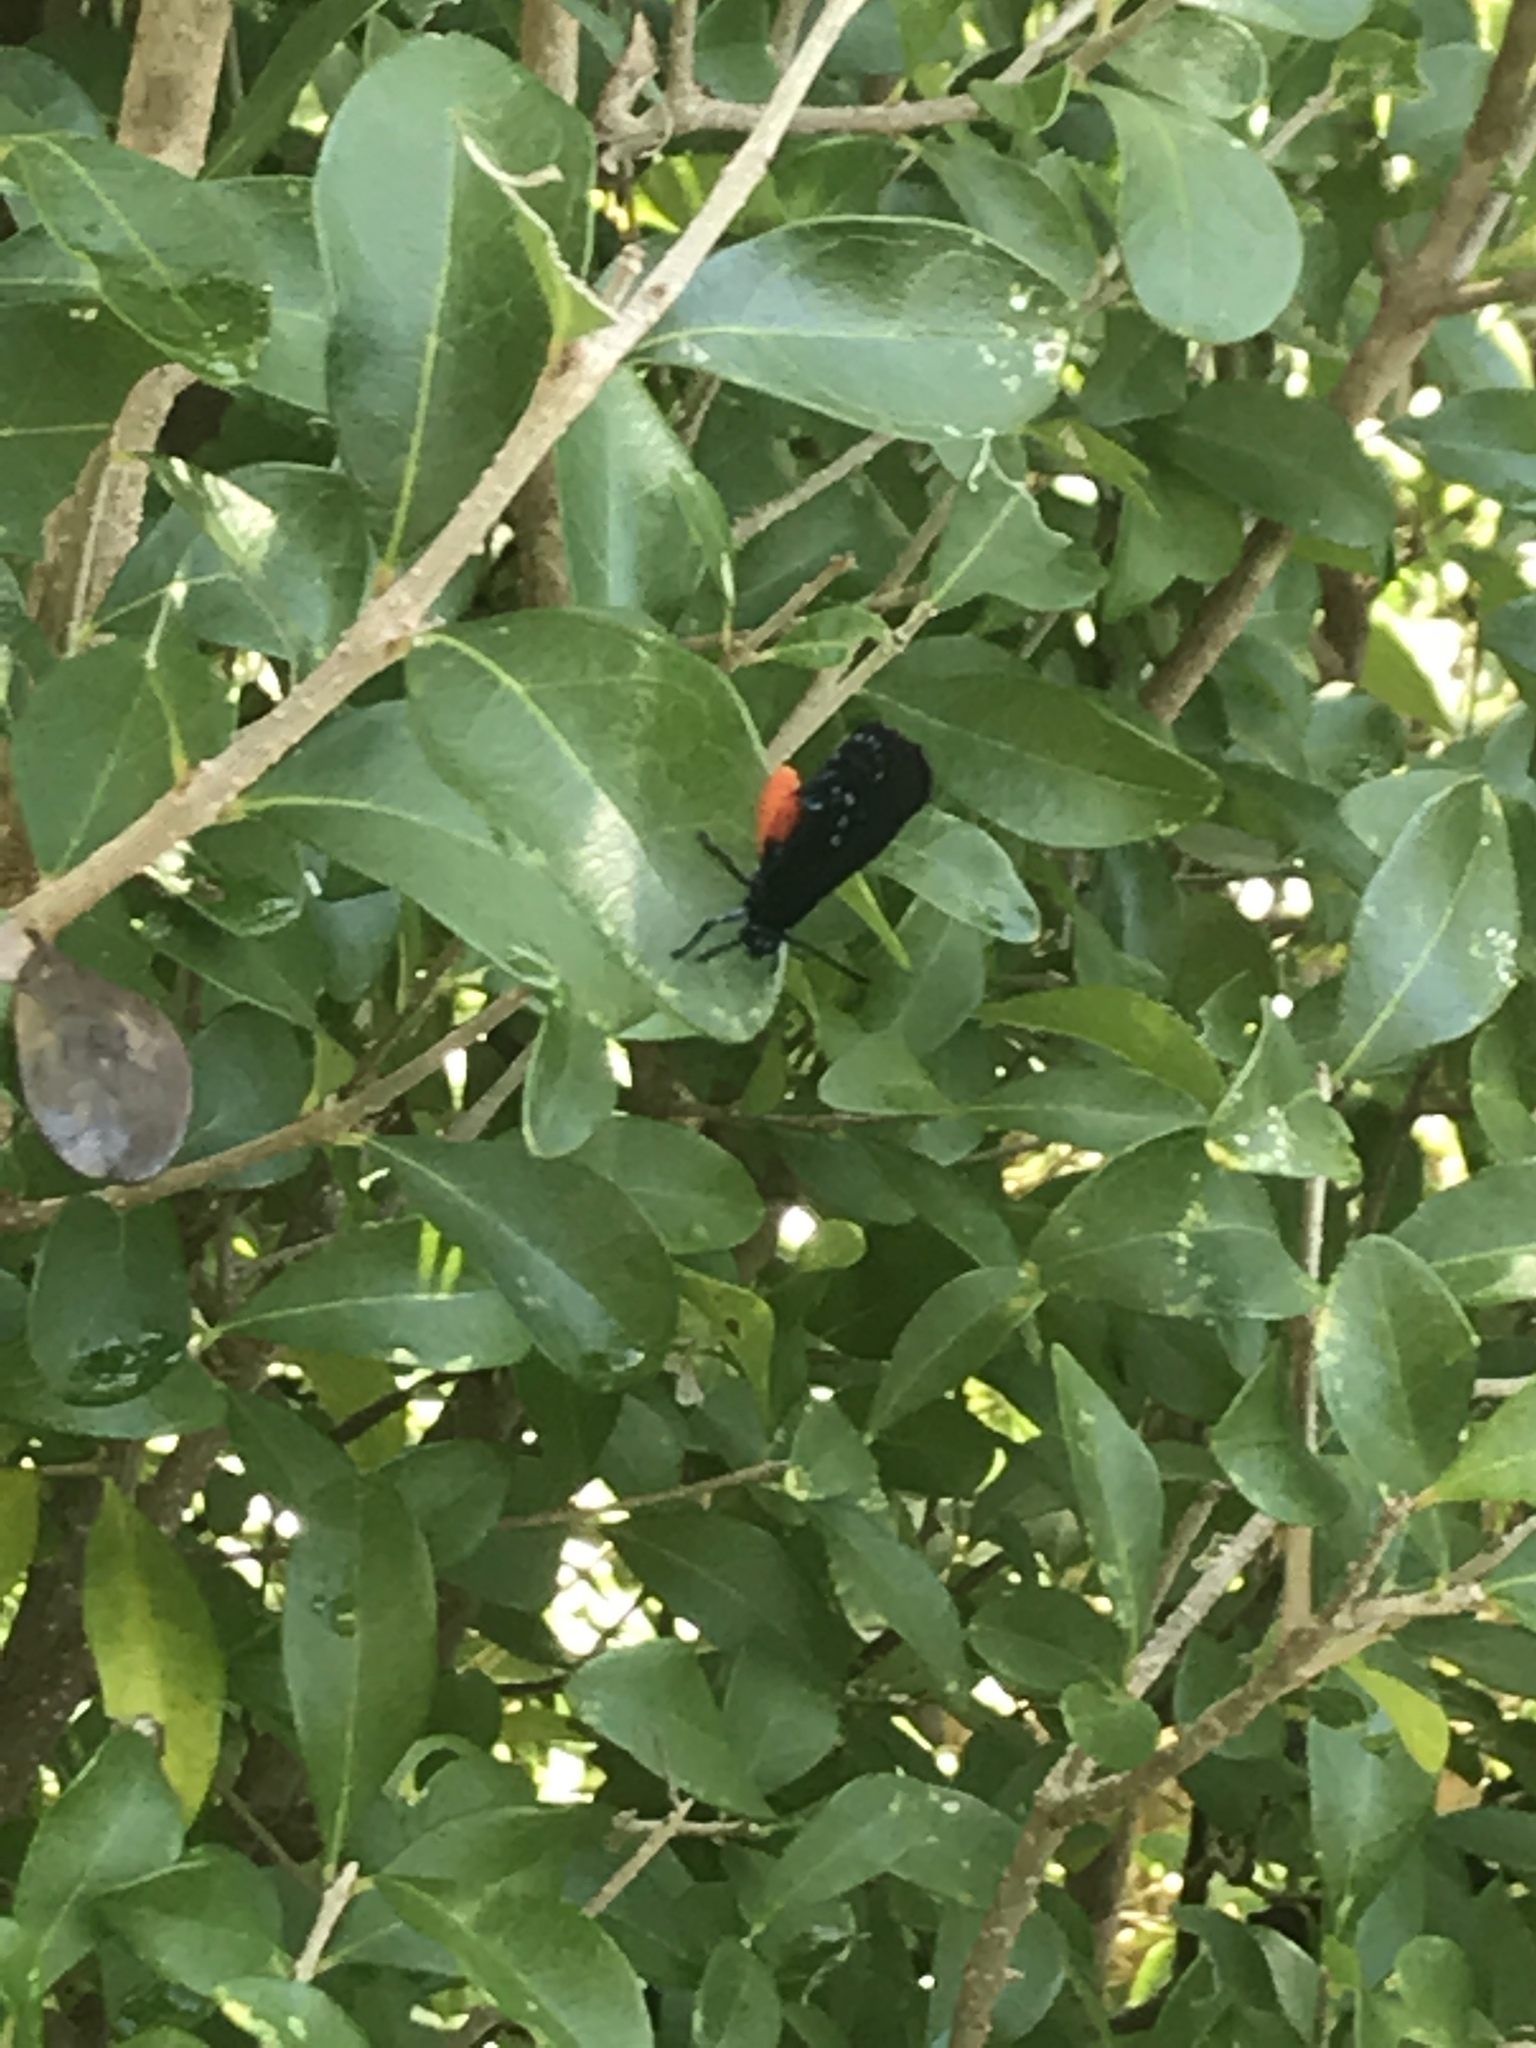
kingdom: Animalia
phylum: Arthropoda
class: Insecta
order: Lepidoptera
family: Lycaenidae
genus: Eumaeus
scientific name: Eumaeus atala
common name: Atala
